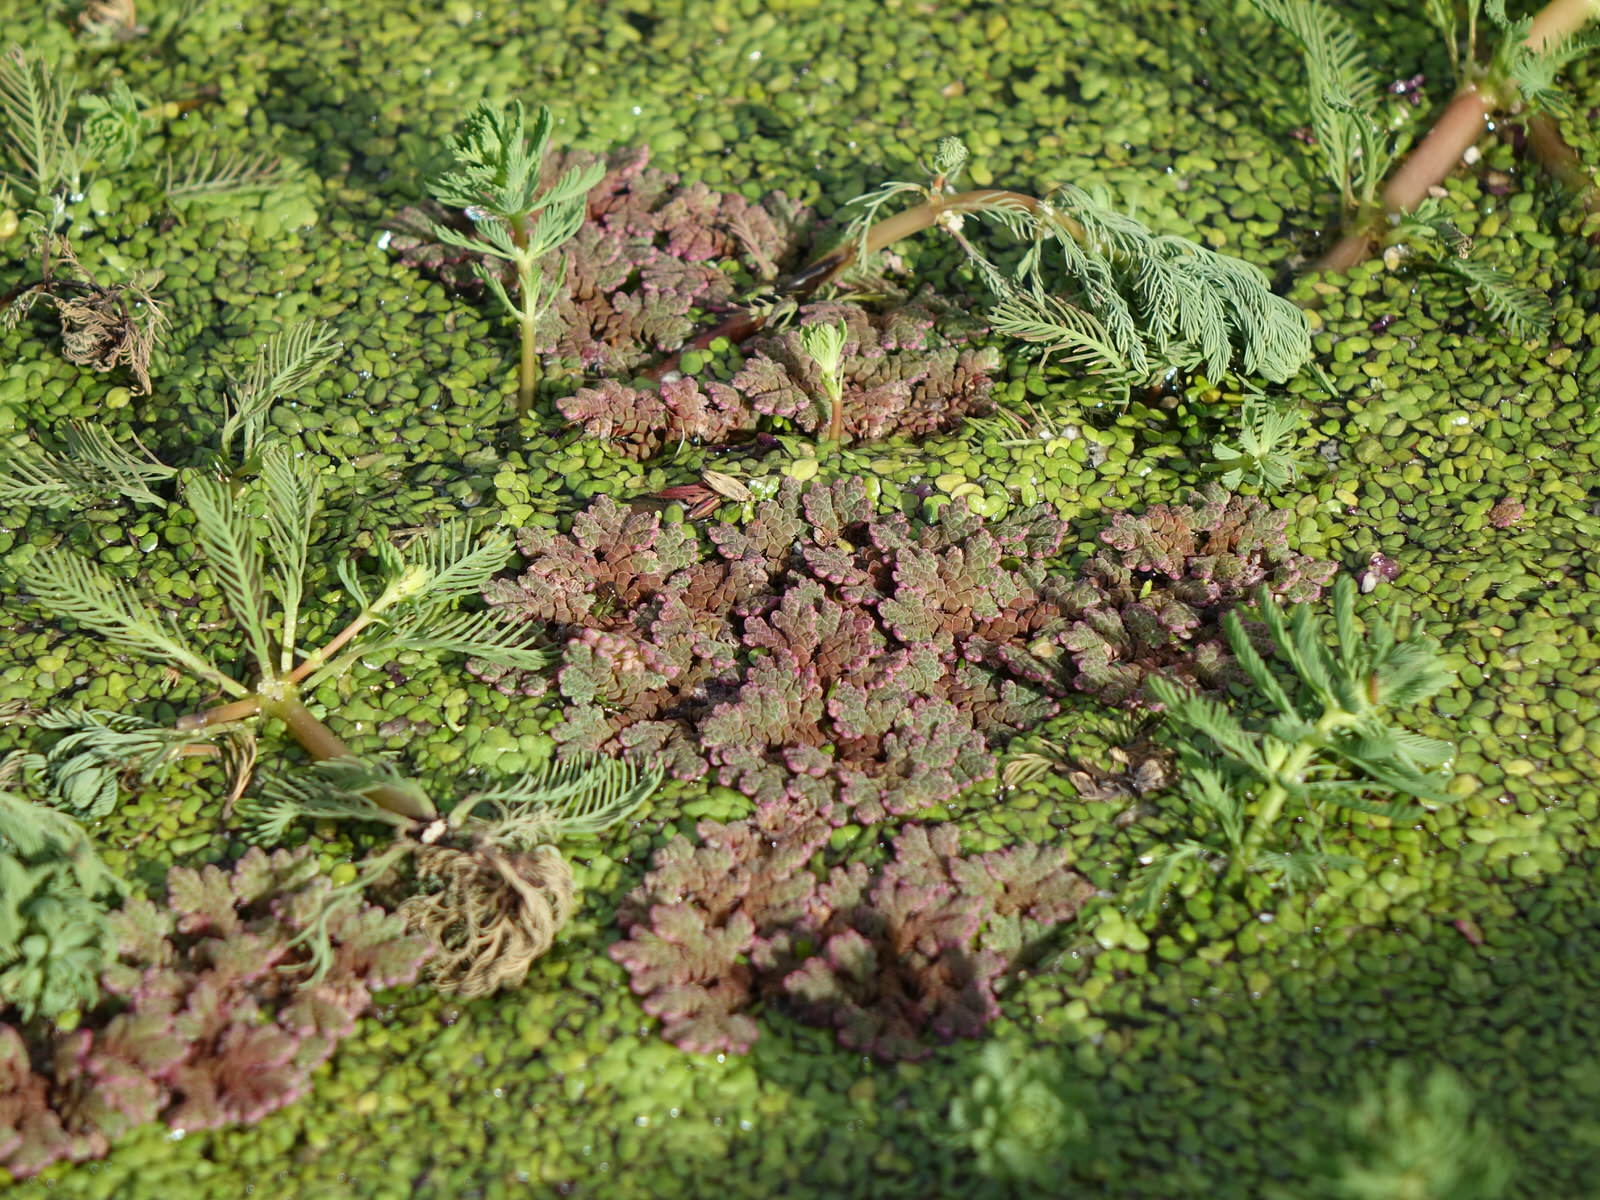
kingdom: Plantae
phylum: Tracheophyta
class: Polypodiopsida
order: Salviniales
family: Salviniaceae
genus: Azolla
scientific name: Azolla rubra
